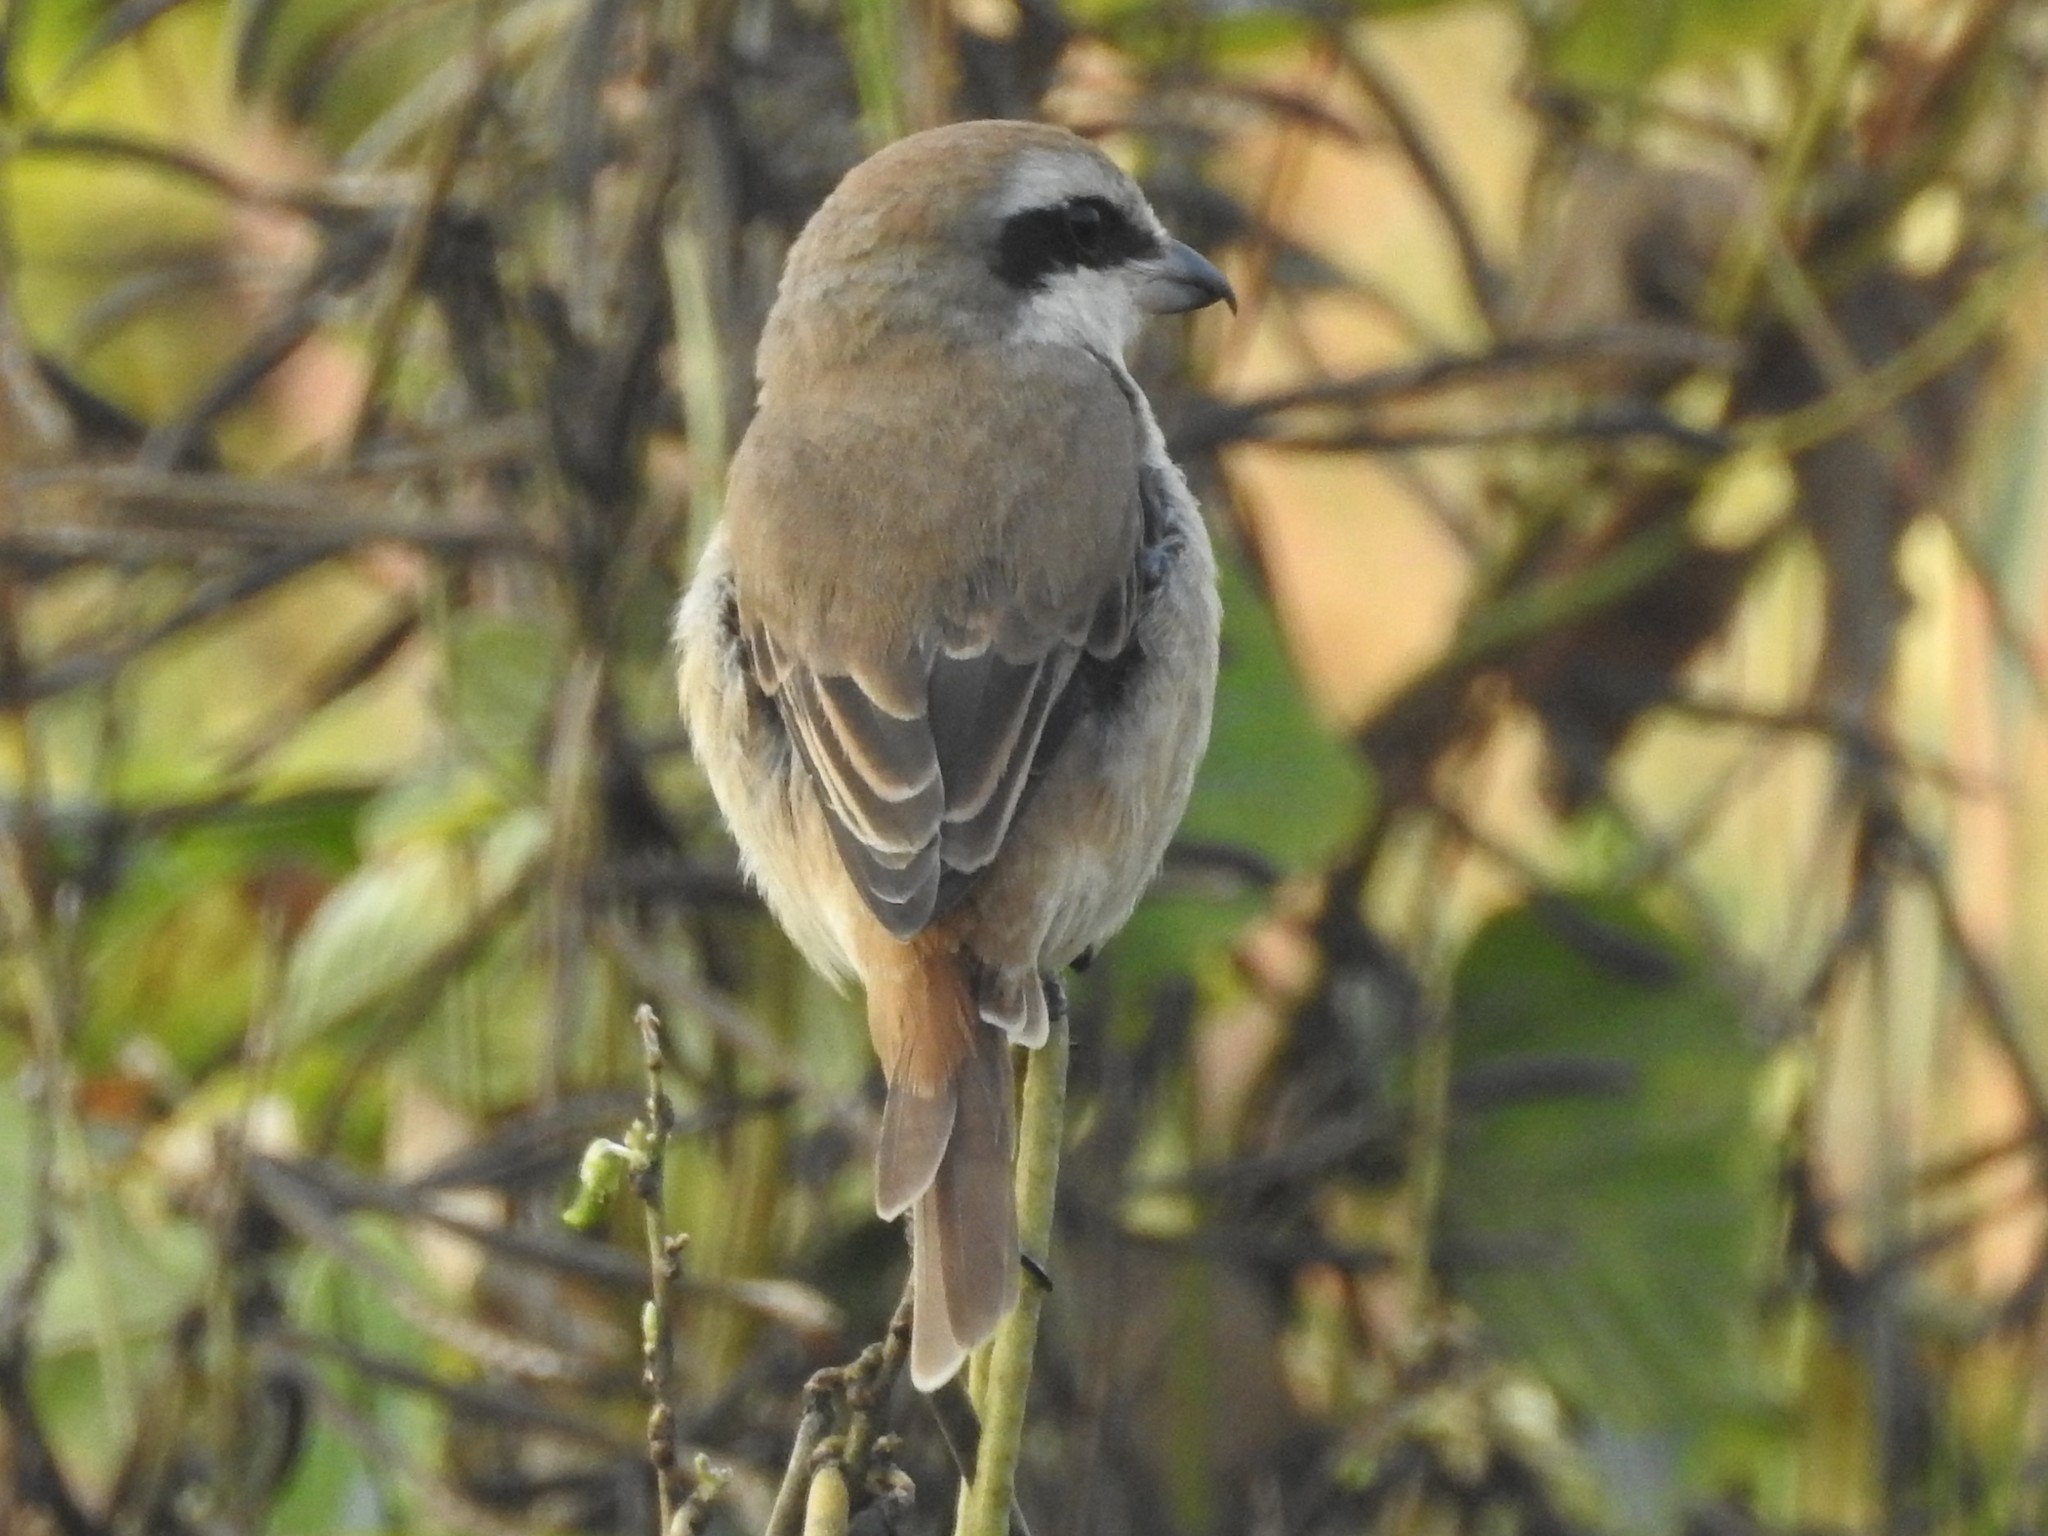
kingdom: Animalia
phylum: Chordata
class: Aves
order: Passeriformes
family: Laniidae
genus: Lanius
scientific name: Lanius cristatus
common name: Brown shrike
